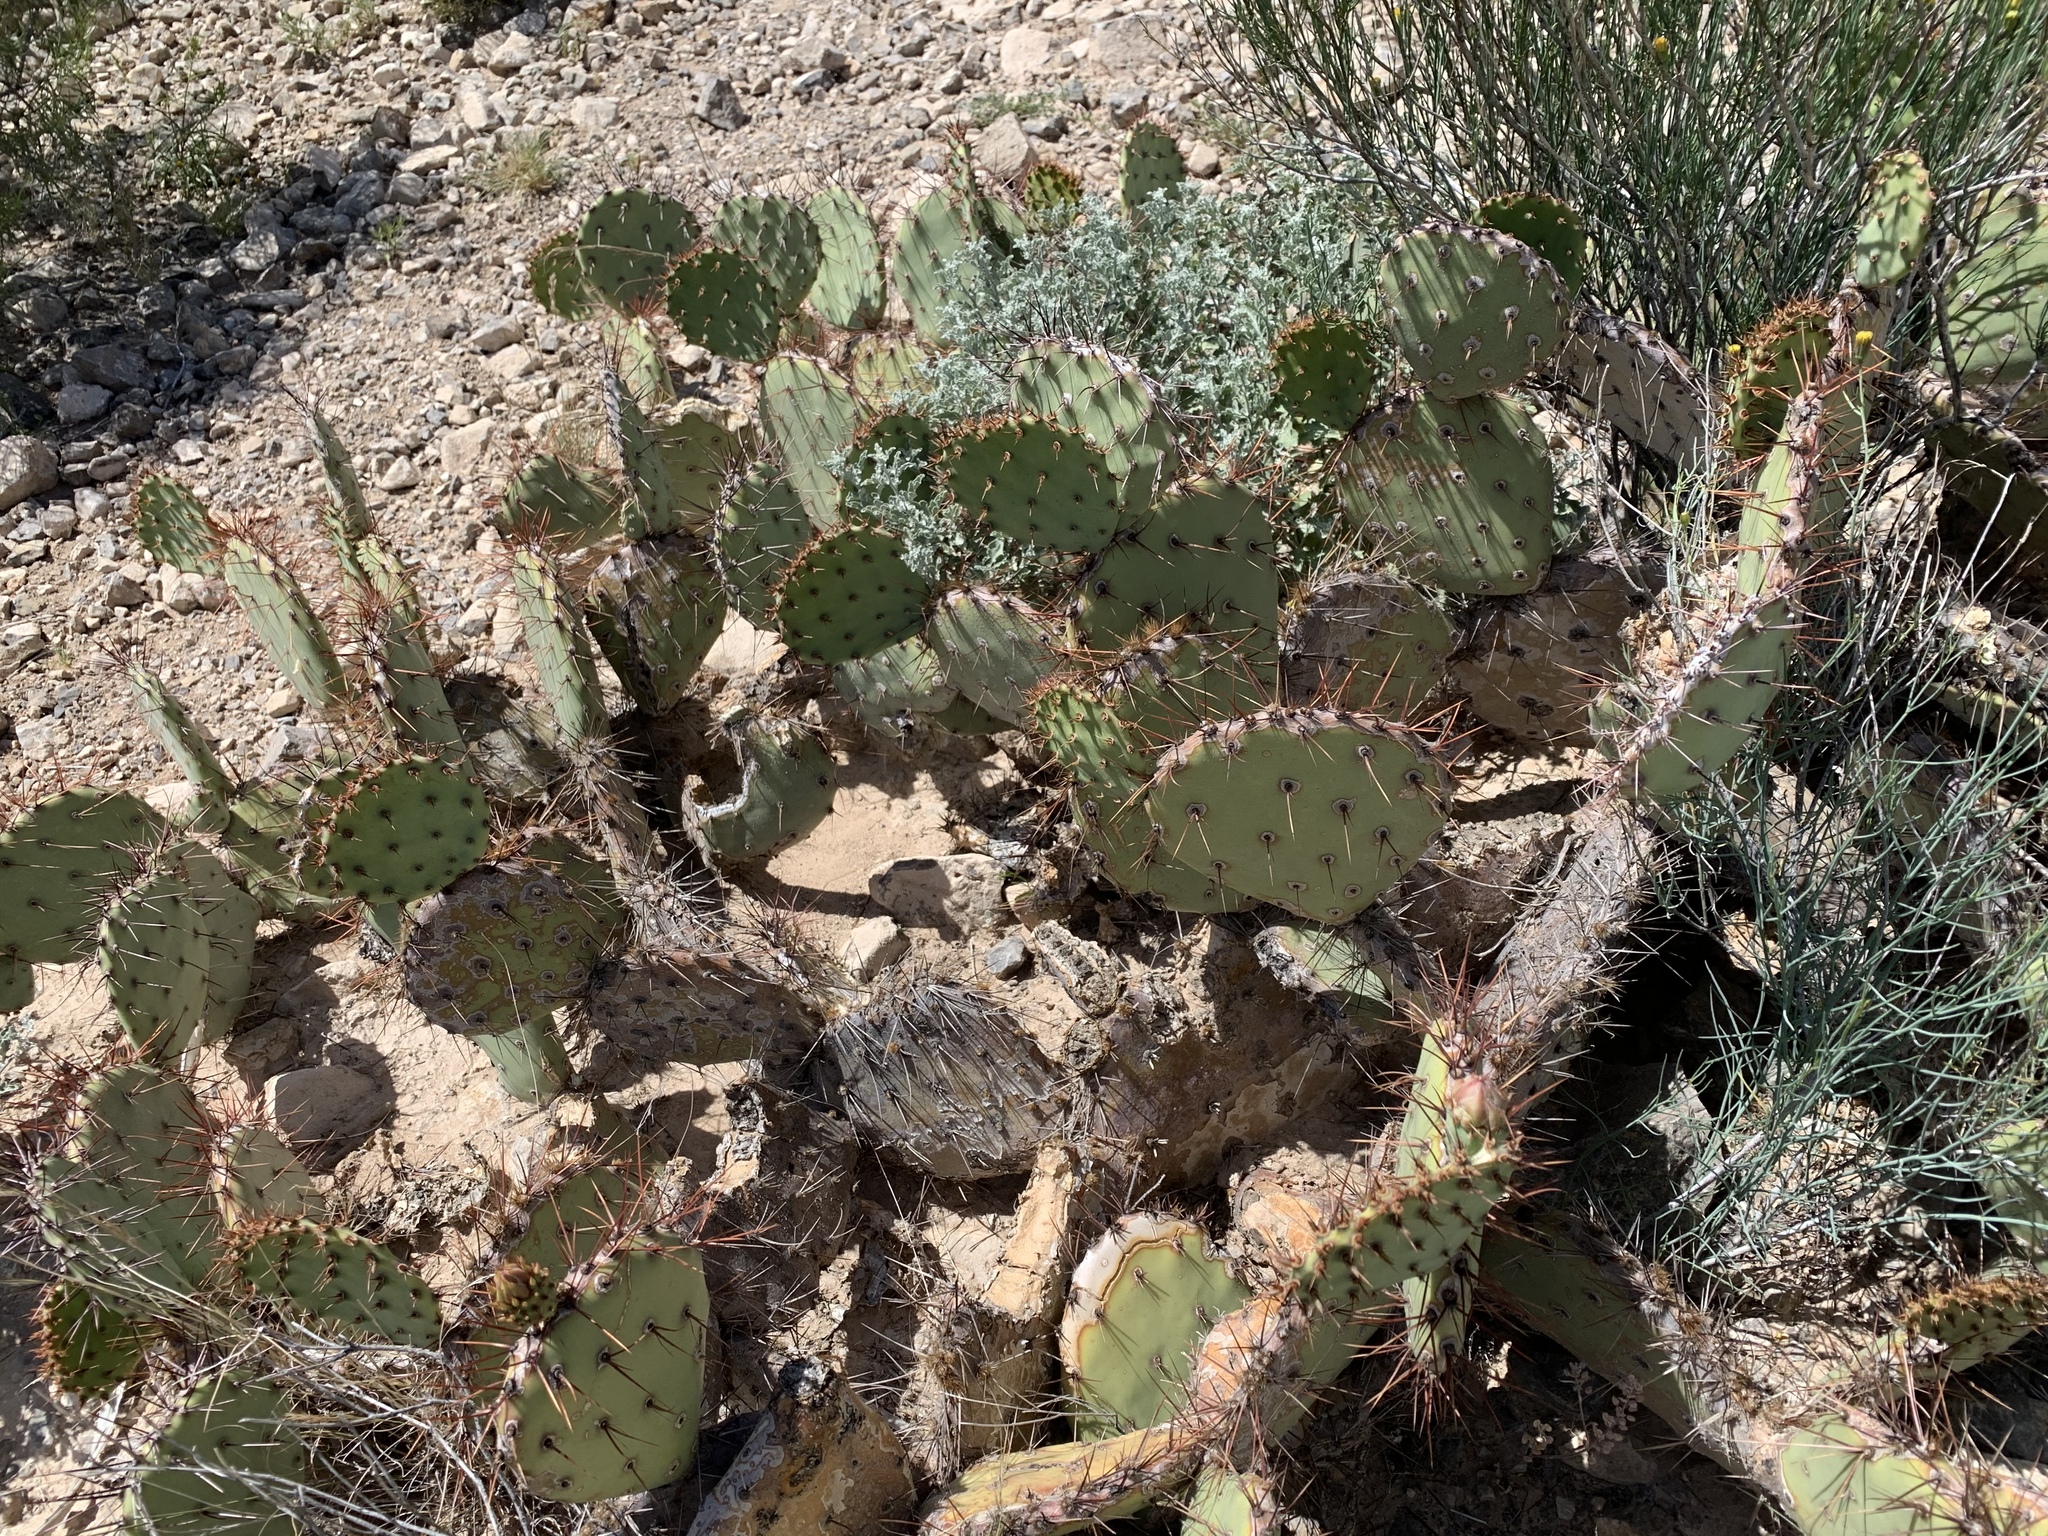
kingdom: Plantae
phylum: Tracheophyta
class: Magnoliopsida
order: Caryophyllales
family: Cactaceae
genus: Opuntia
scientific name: Opuntia engelmannii
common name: Cactus-apple
